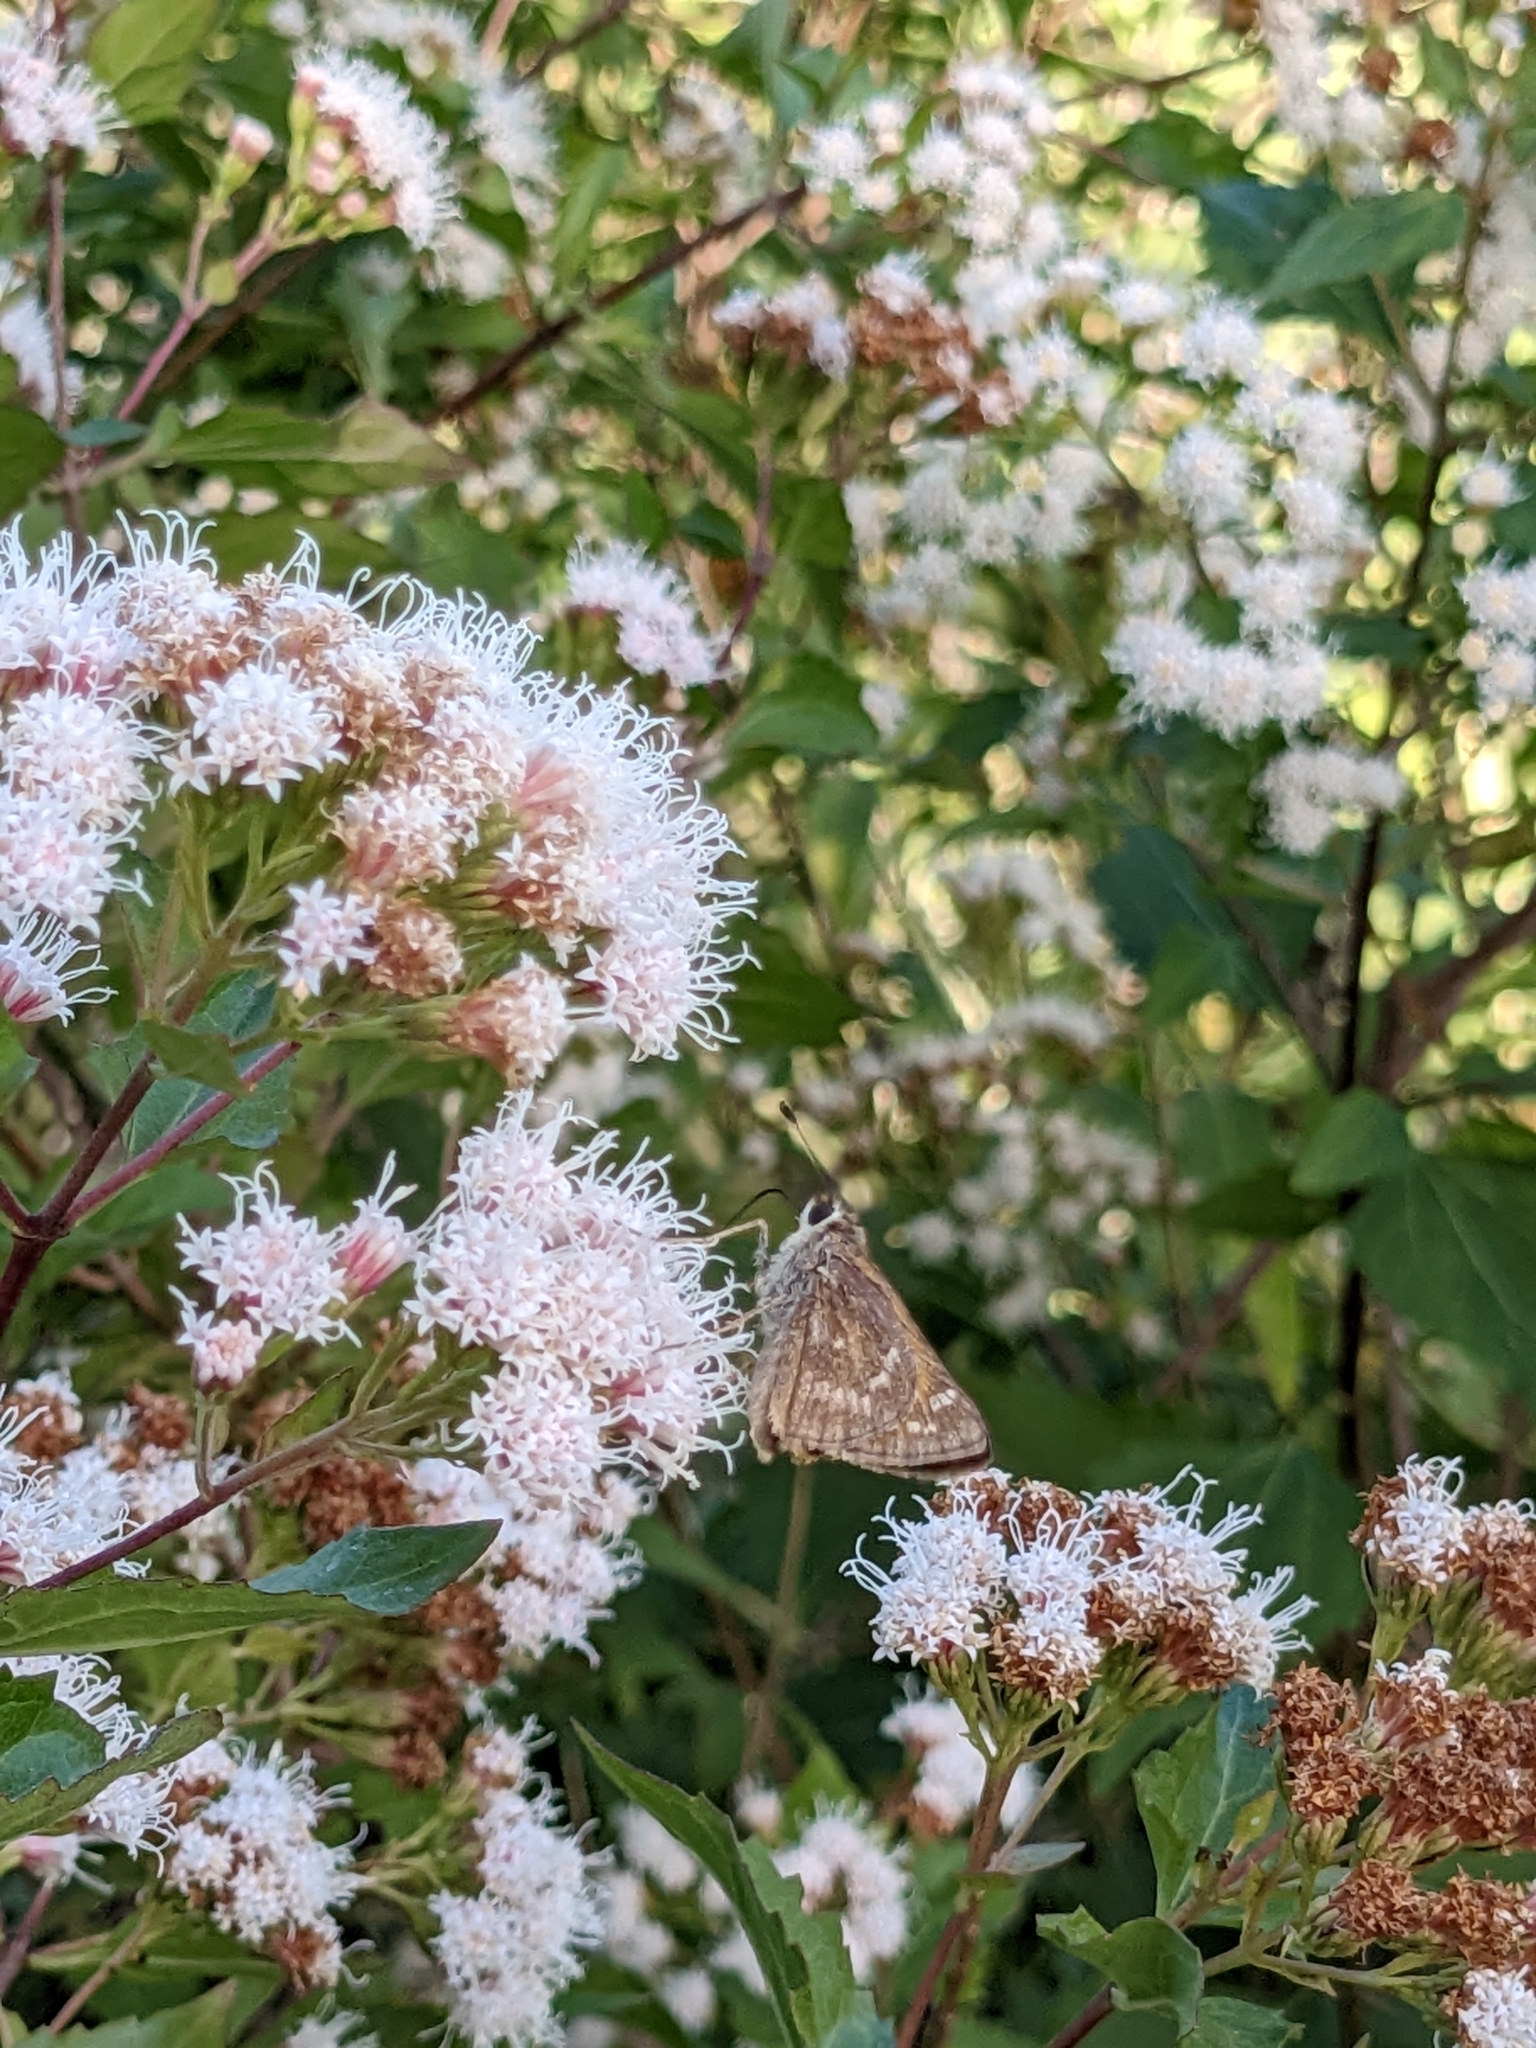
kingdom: Animalia
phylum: Arthropoda
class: Insecta
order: Lepidoptera
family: Hesperiidae
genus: Atalopedes
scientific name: Atalopedes
